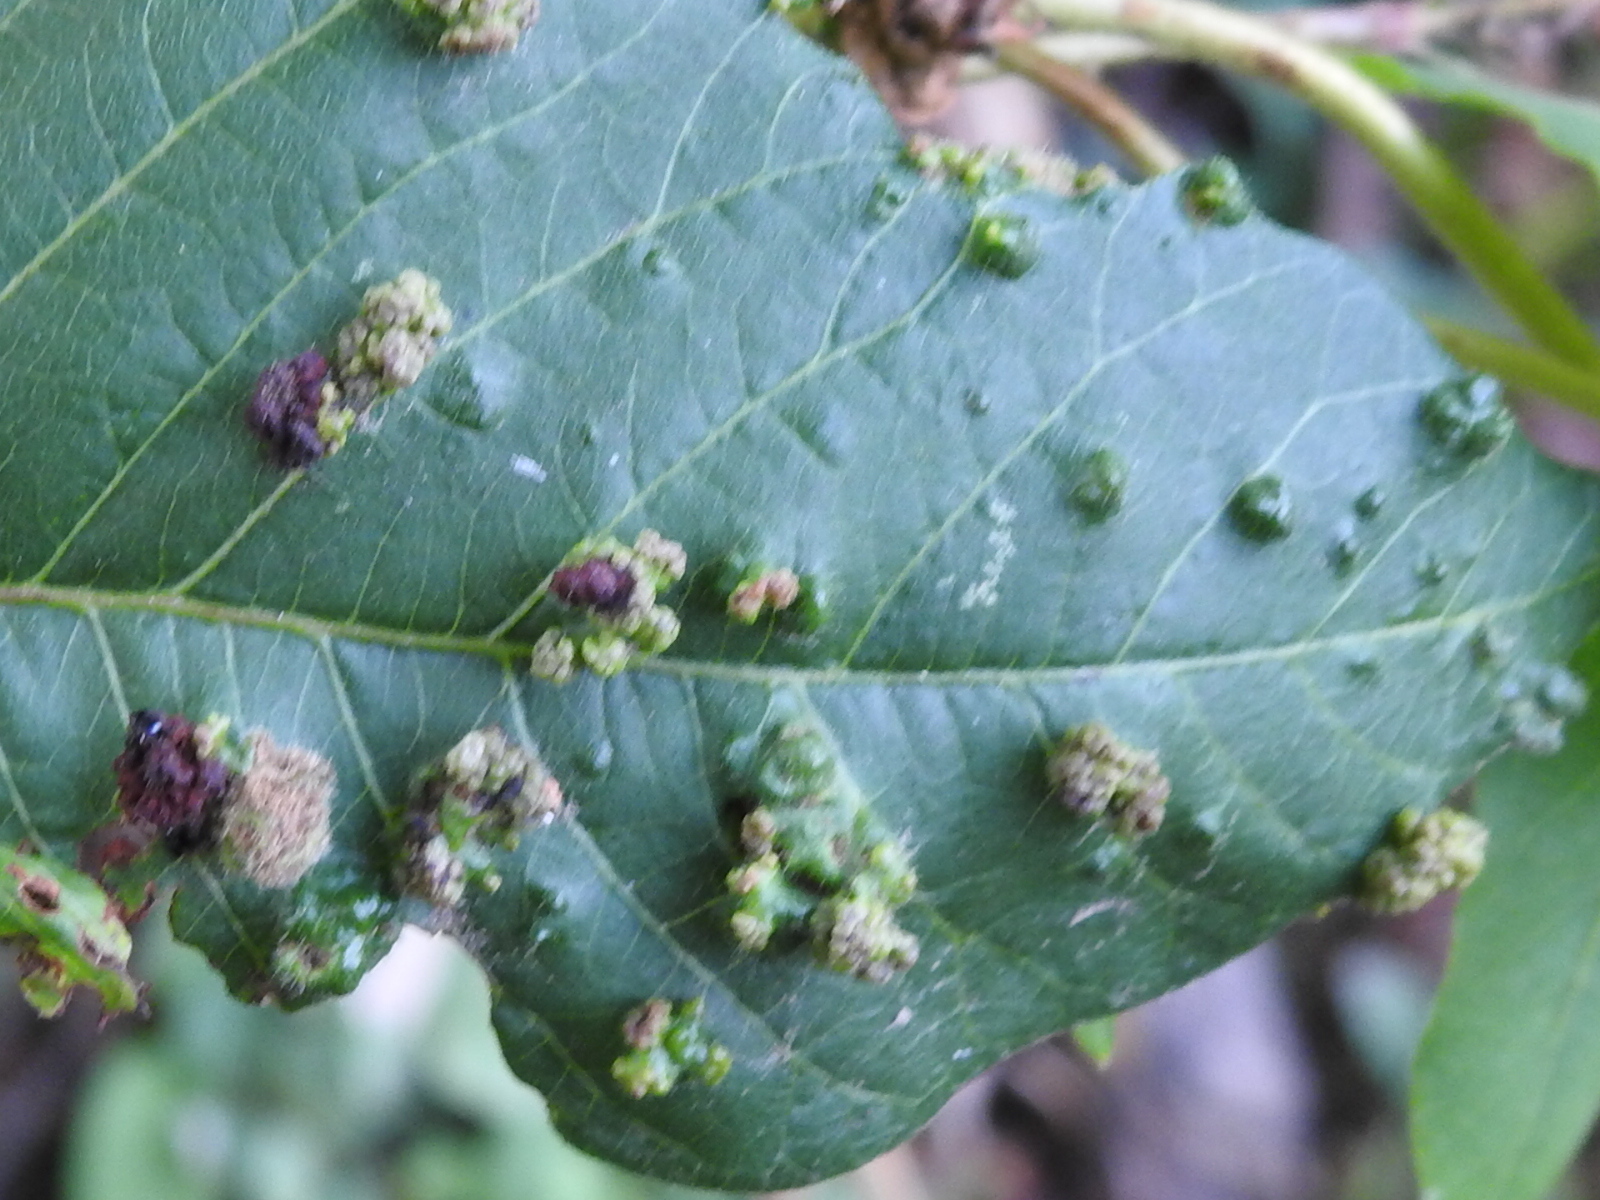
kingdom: Animalia
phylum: Arthropoda
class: Arachnida
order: Trombidiformes
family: Eriophyidae
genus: Aculops
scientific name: Aculops
